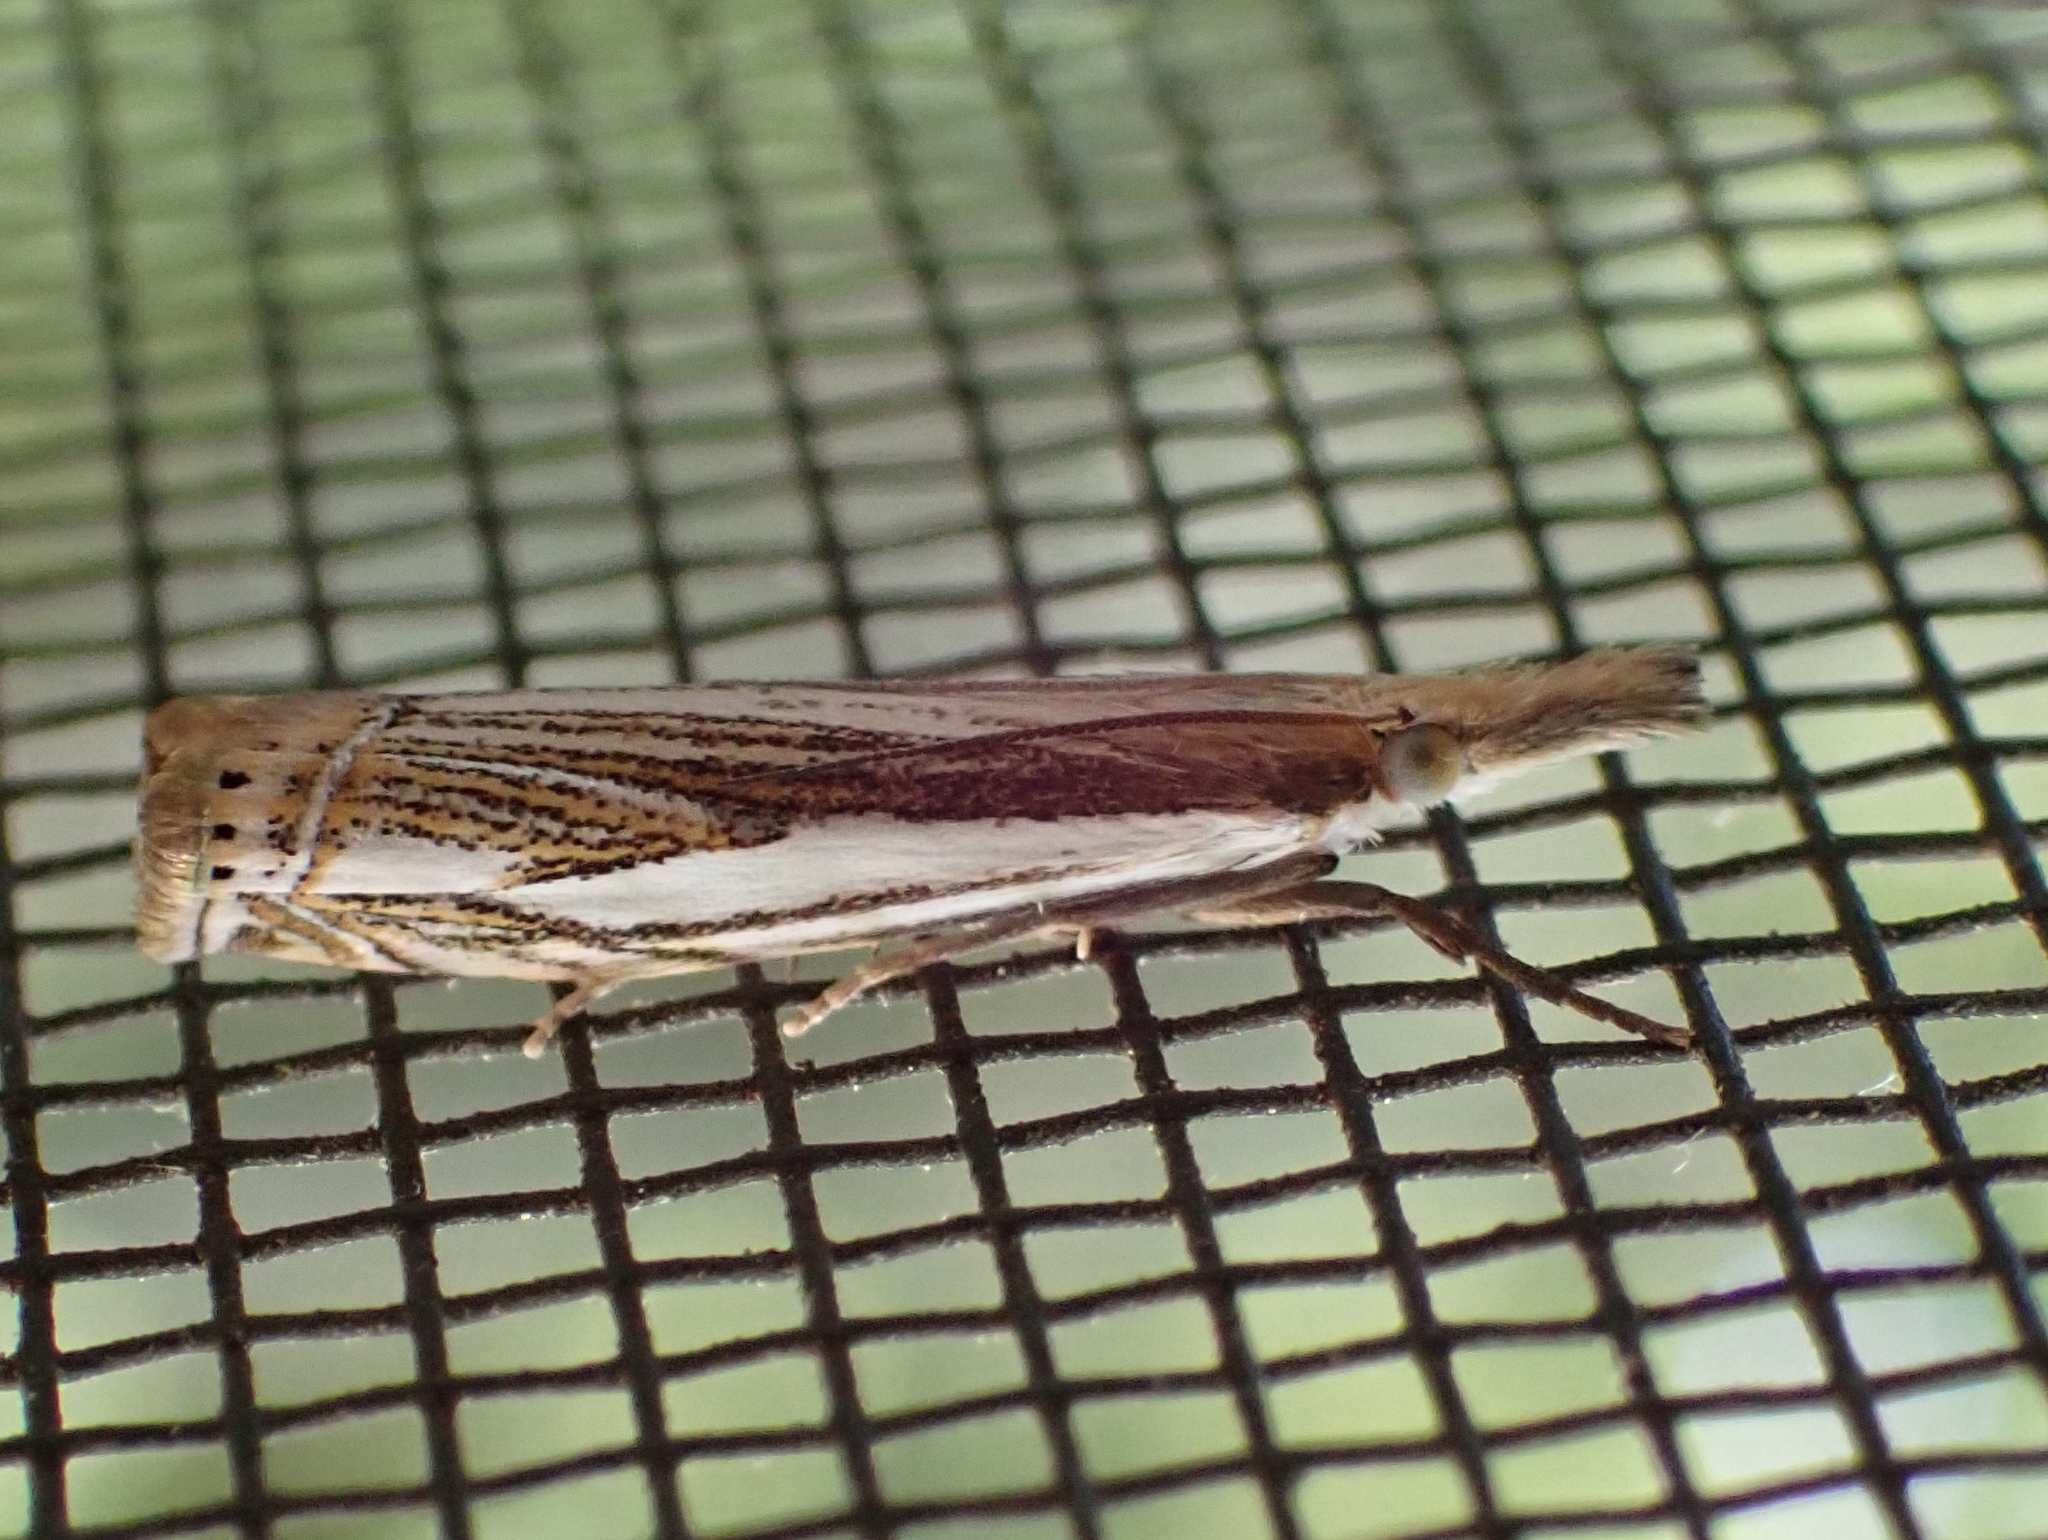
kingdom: Animalia
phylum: Arthropoda
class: Insecta
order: Lepidoptera
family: Crambidae
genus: Crambus
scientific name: Crambus saltuellus
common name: Pasture grass-veneer
